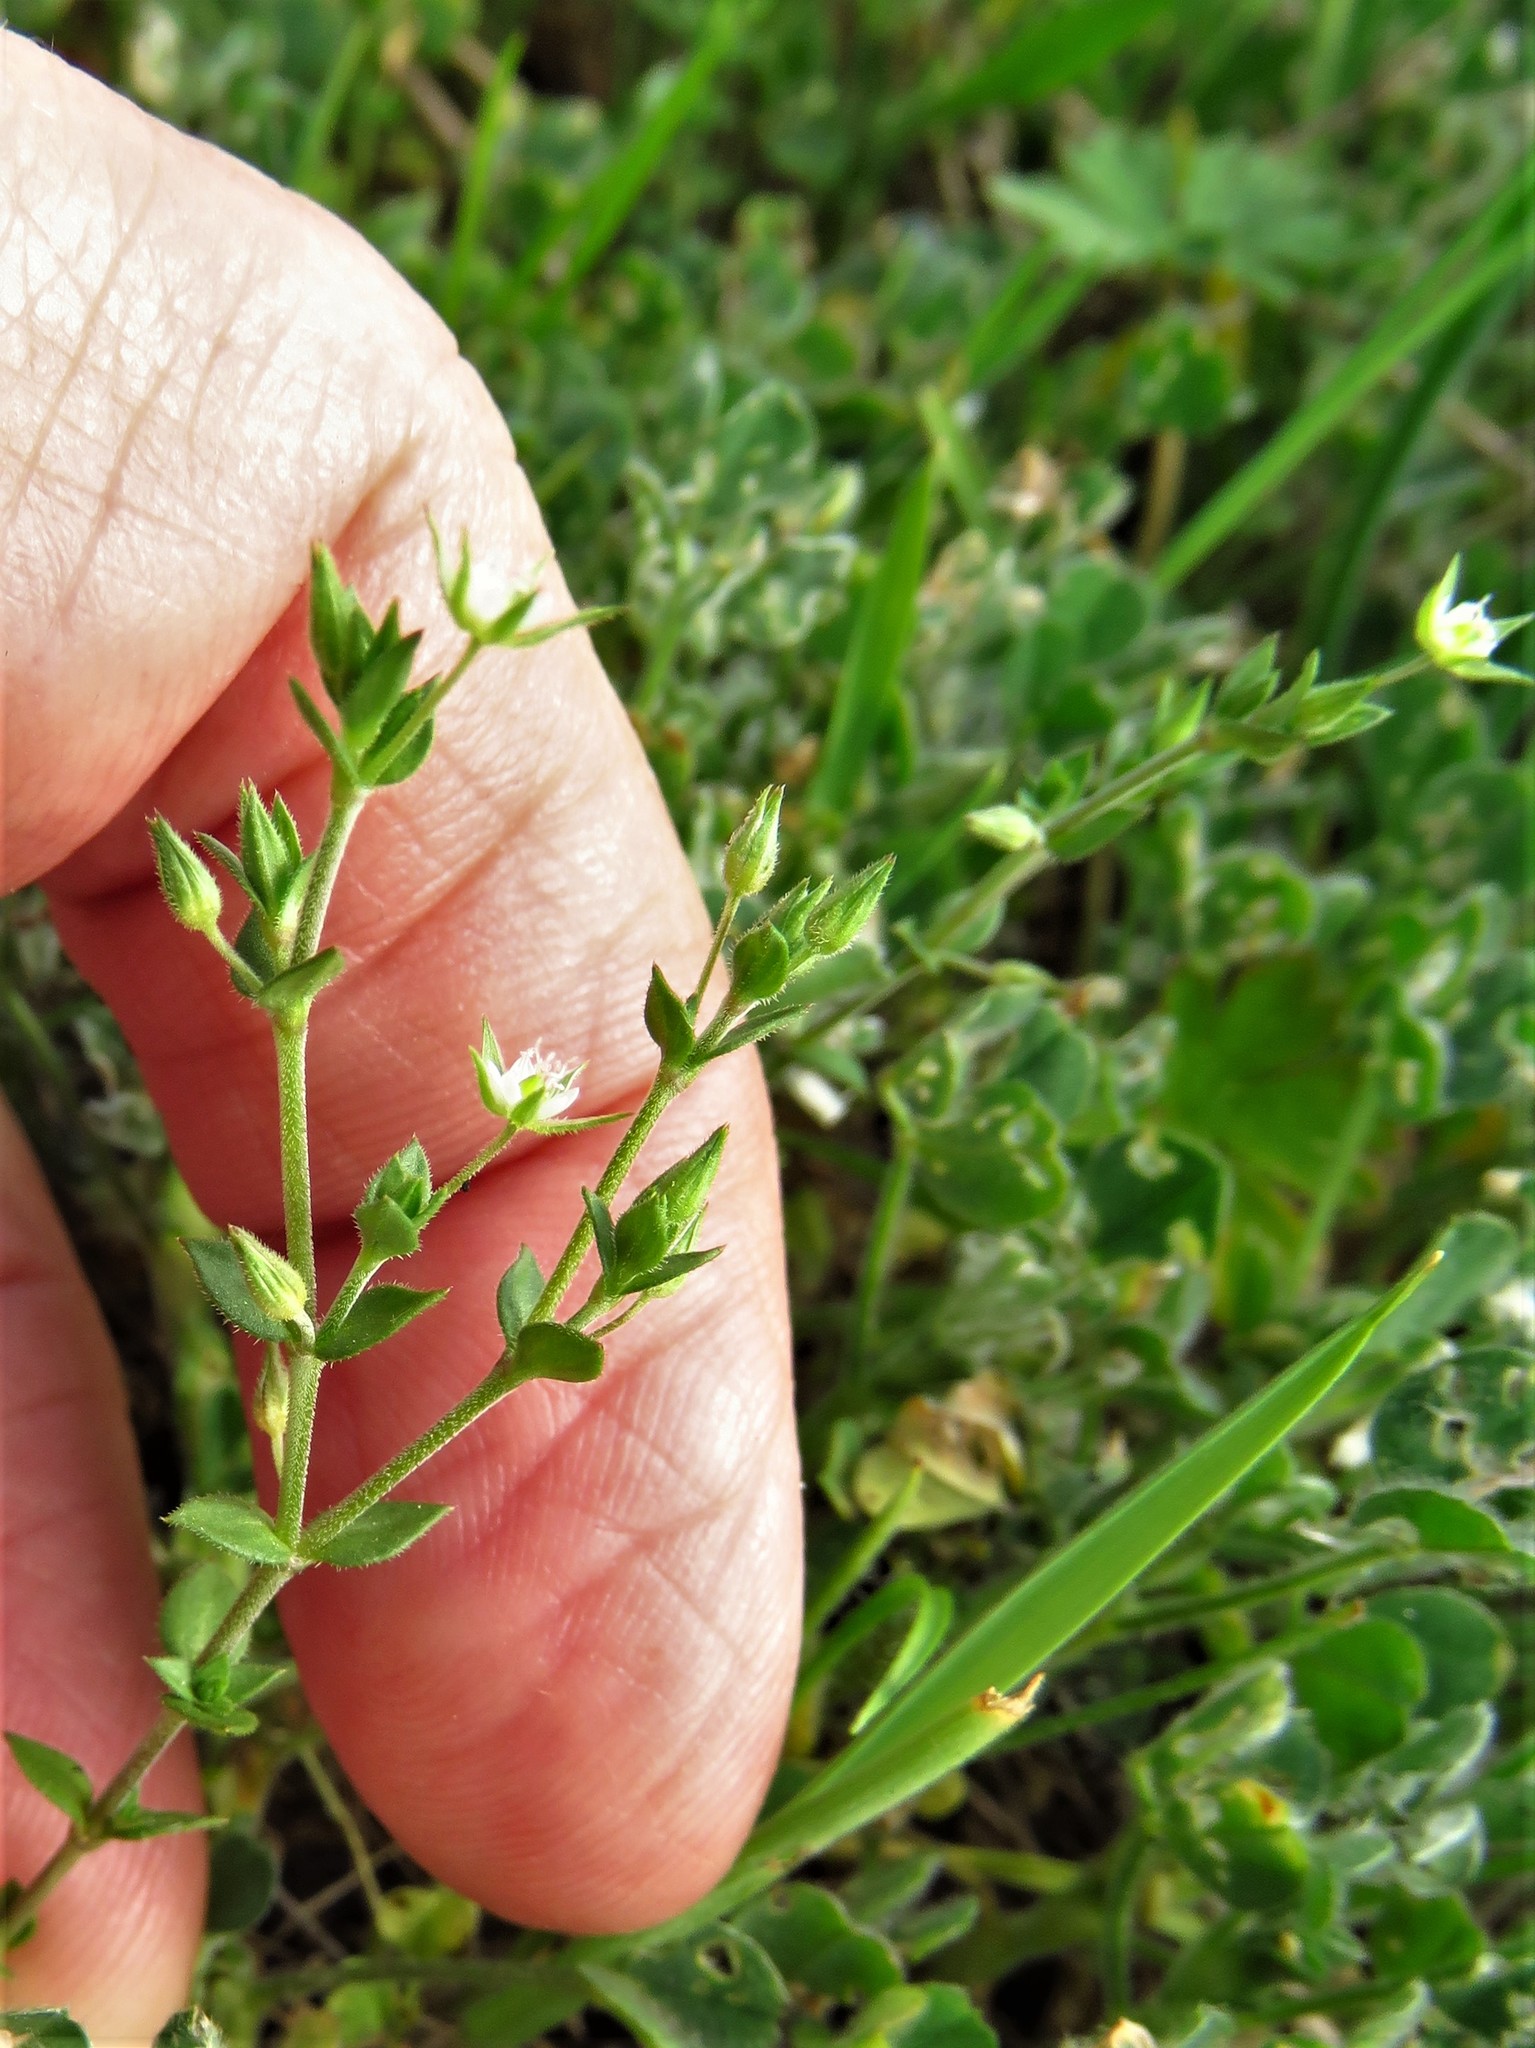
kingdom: Plantae
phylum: Tracheophyta
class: Magnoliopsida
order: Caryophyllales
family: Caryophyllaceae
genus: Arenaria
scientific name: Arenaria serpyllifolia
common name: Thyme-leaved sandwort
